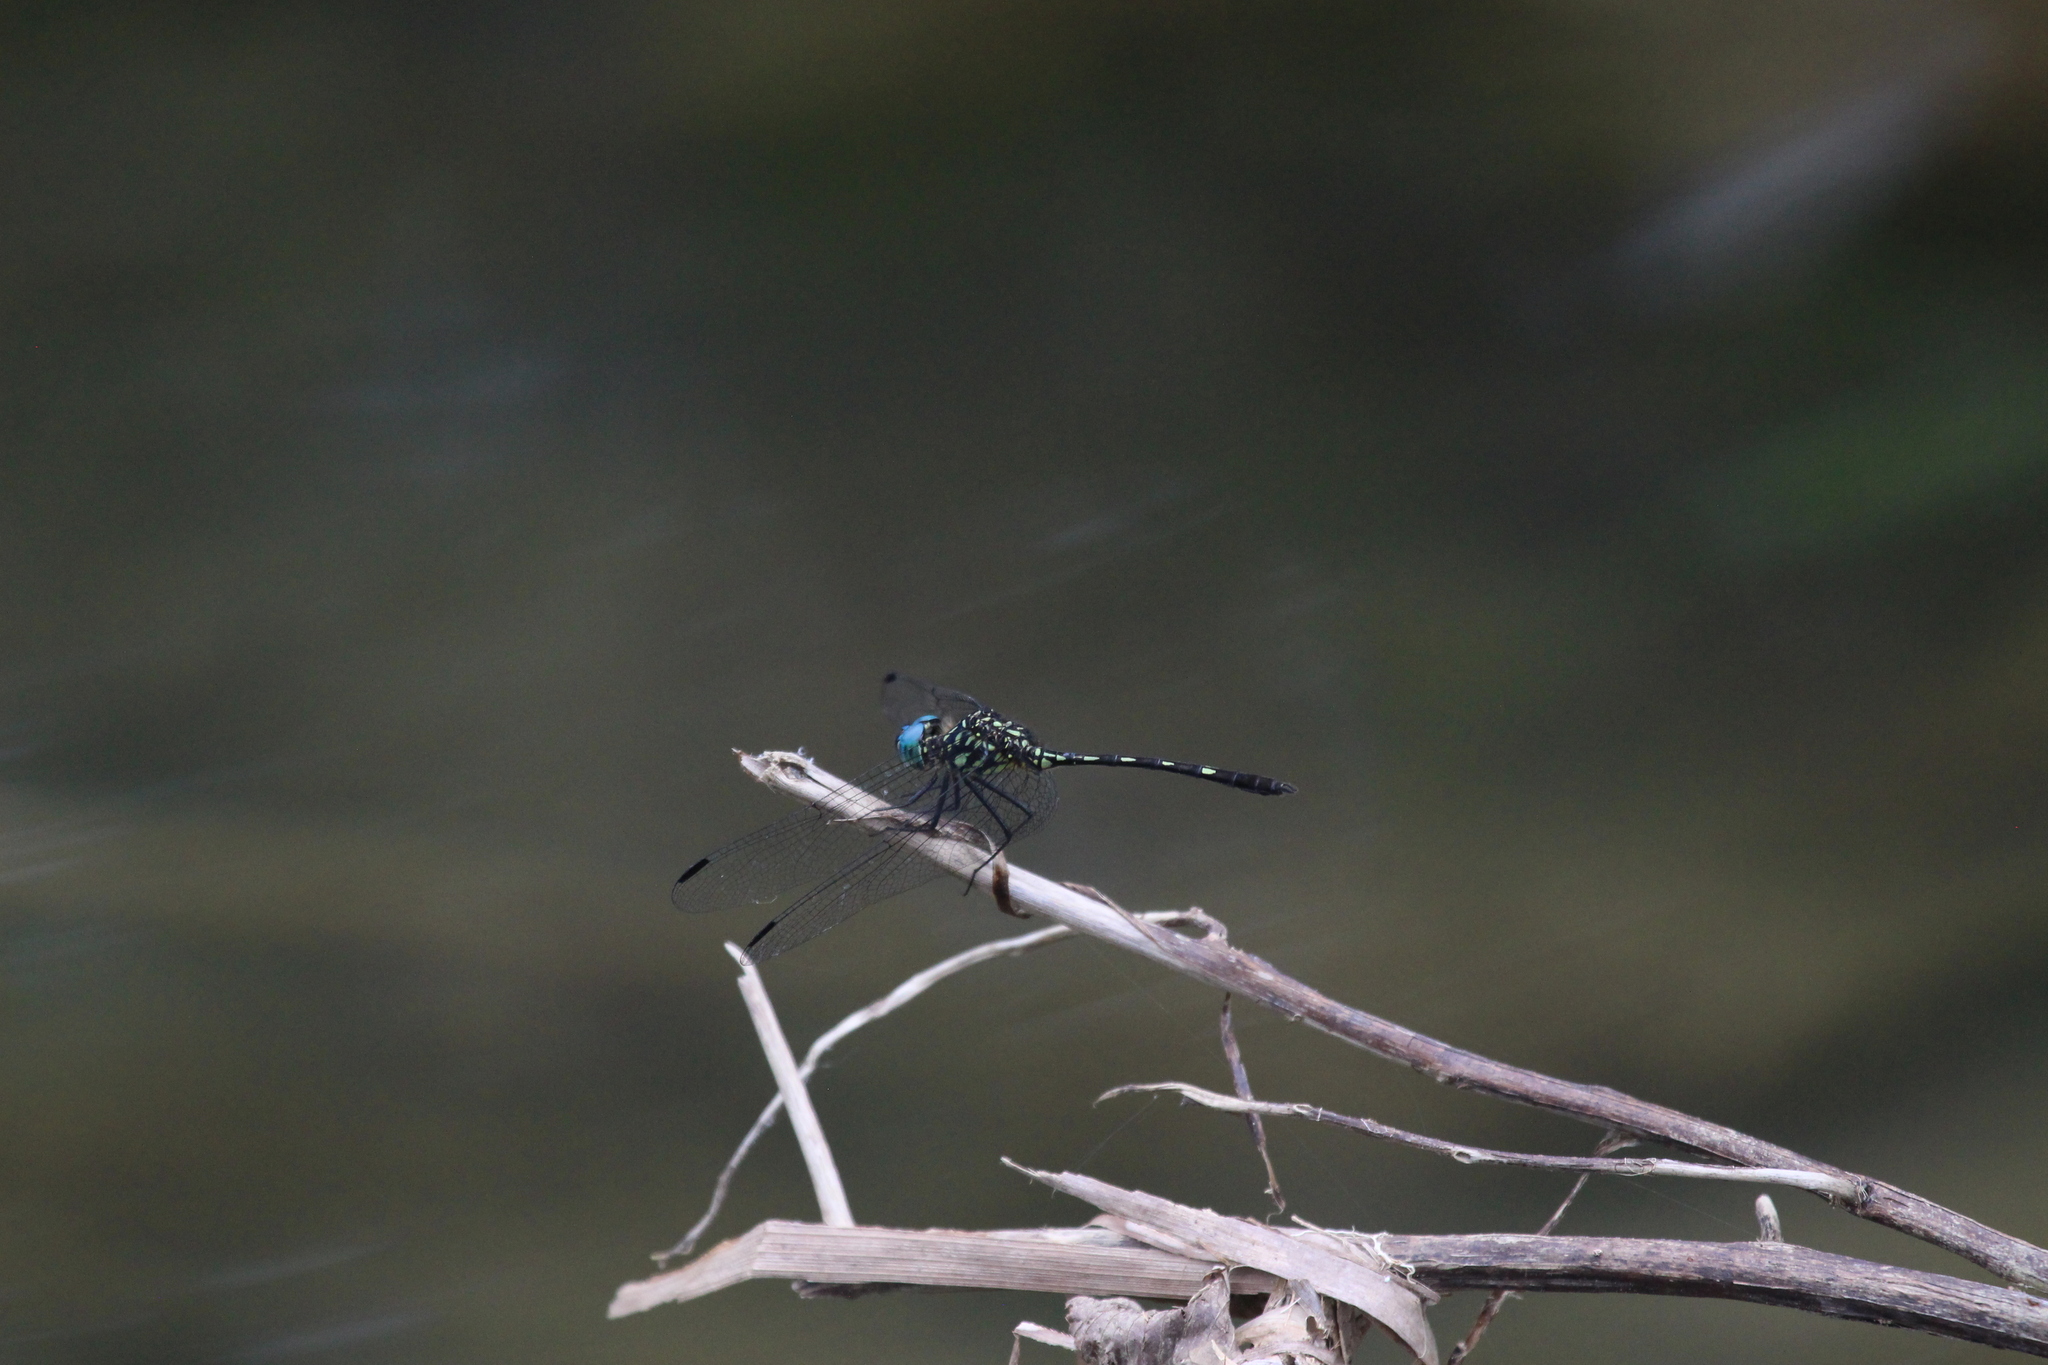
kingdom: Animalia
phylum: Arthropoda
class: Insecta
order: Odonata
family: Libellulidae
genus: Dythemis
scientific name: Dythemis nigra
